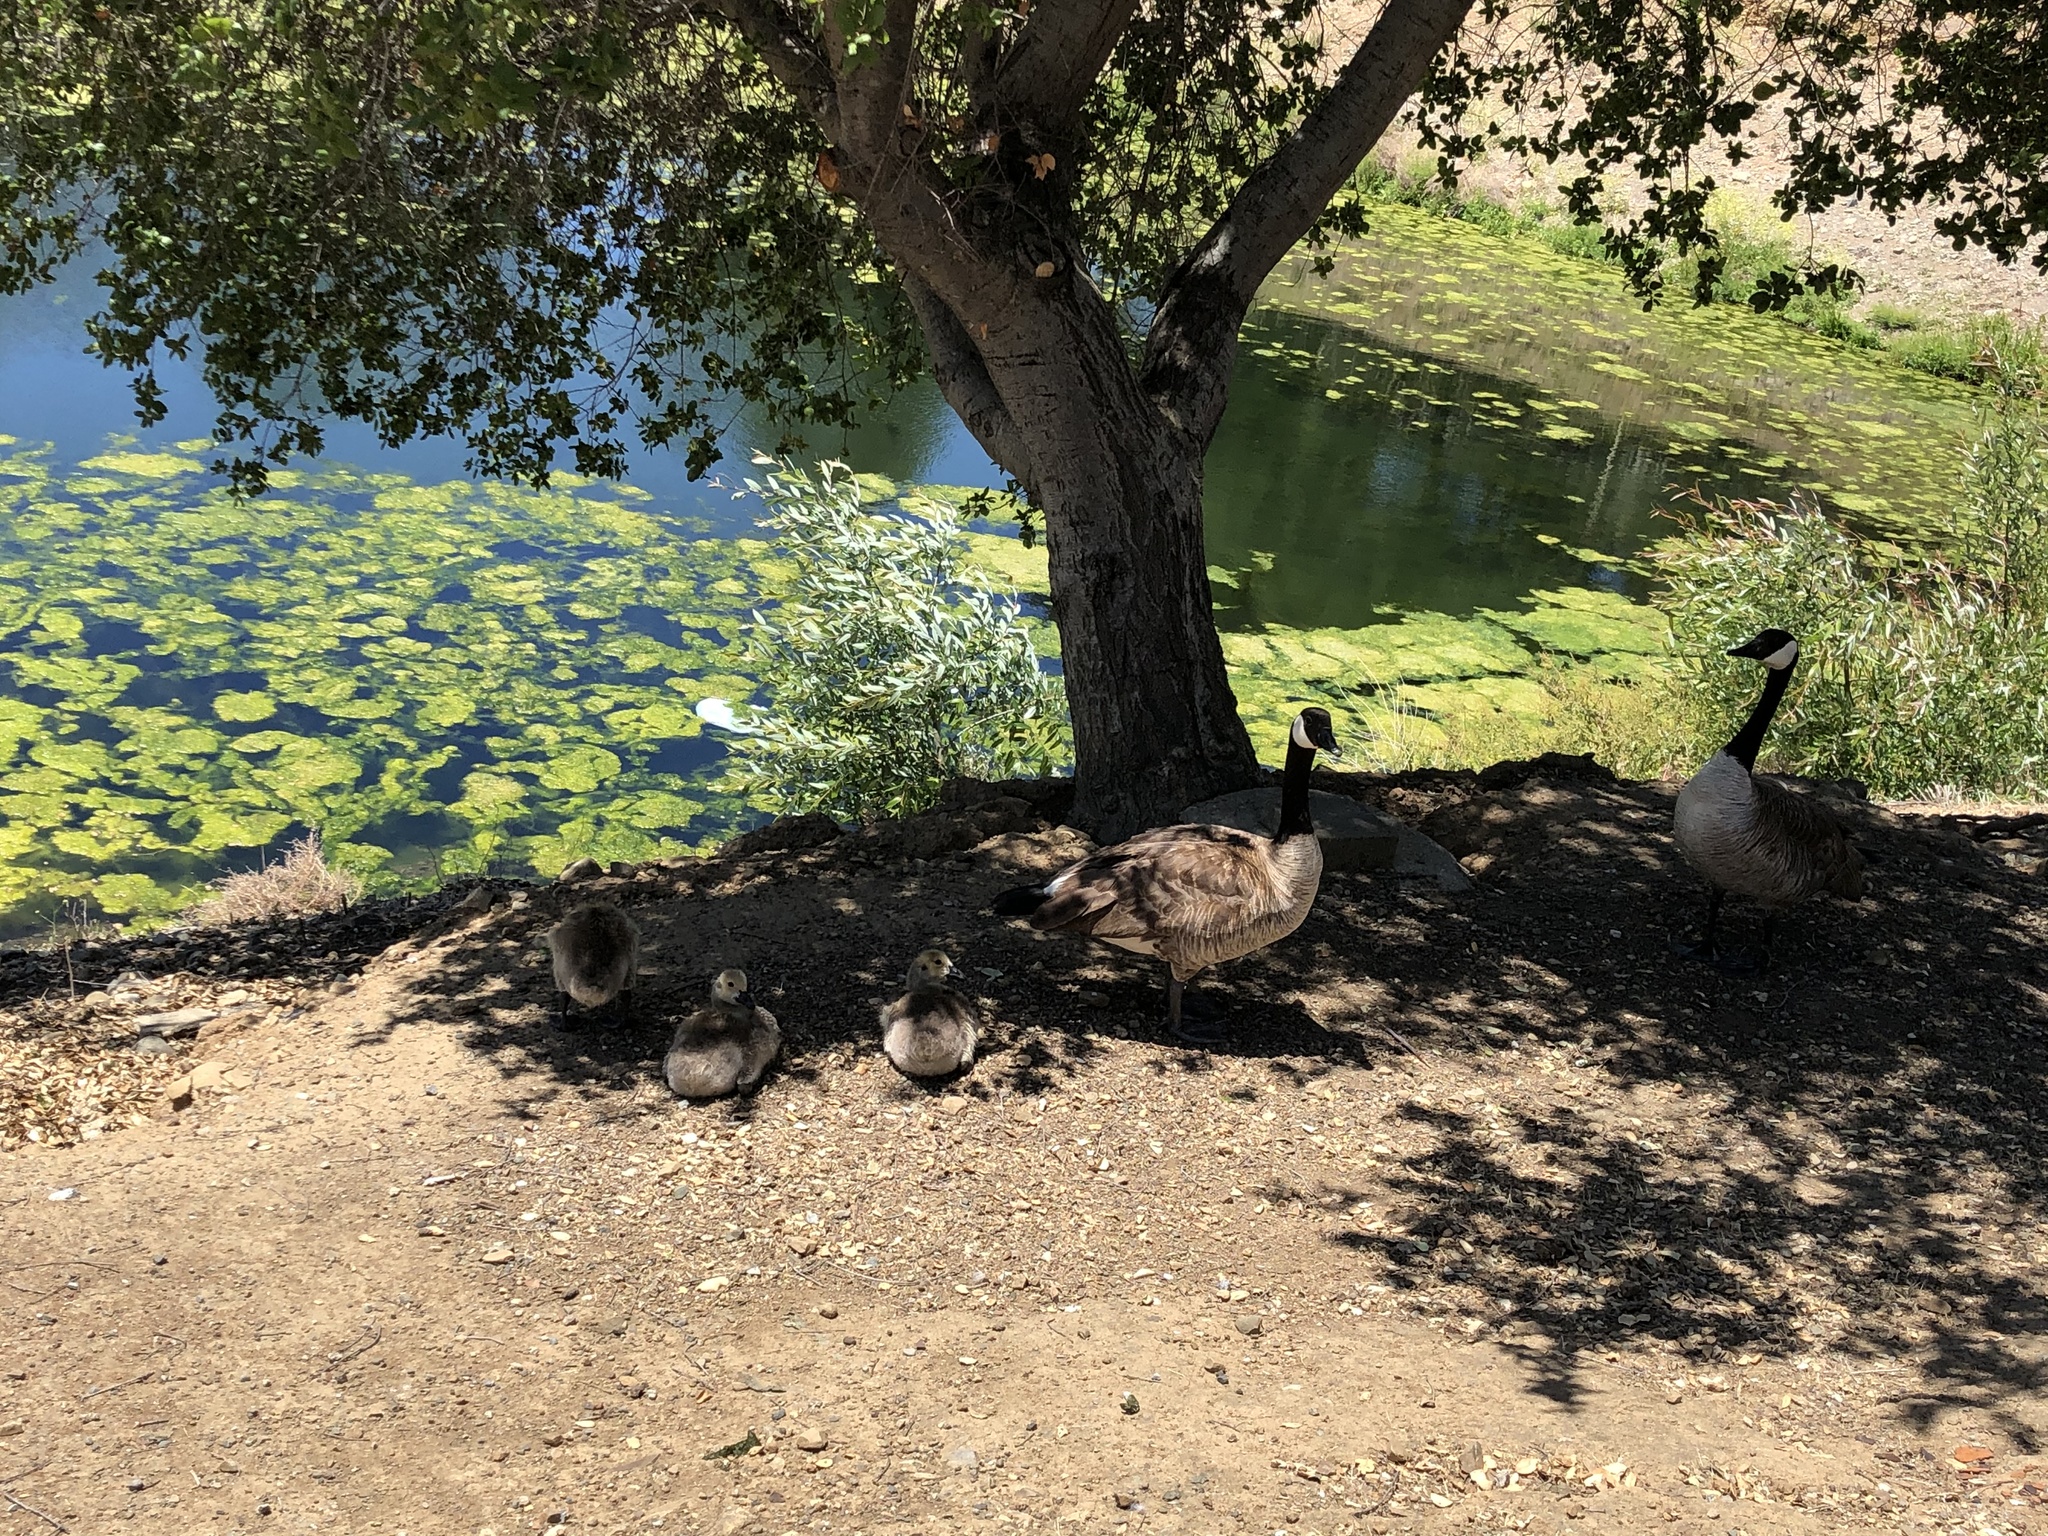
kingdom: Animalia
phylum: Chordata
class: Aves
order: Anseriformes
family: Anatidae
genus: Branta
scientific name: Branta canadensis
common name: Canada goose
